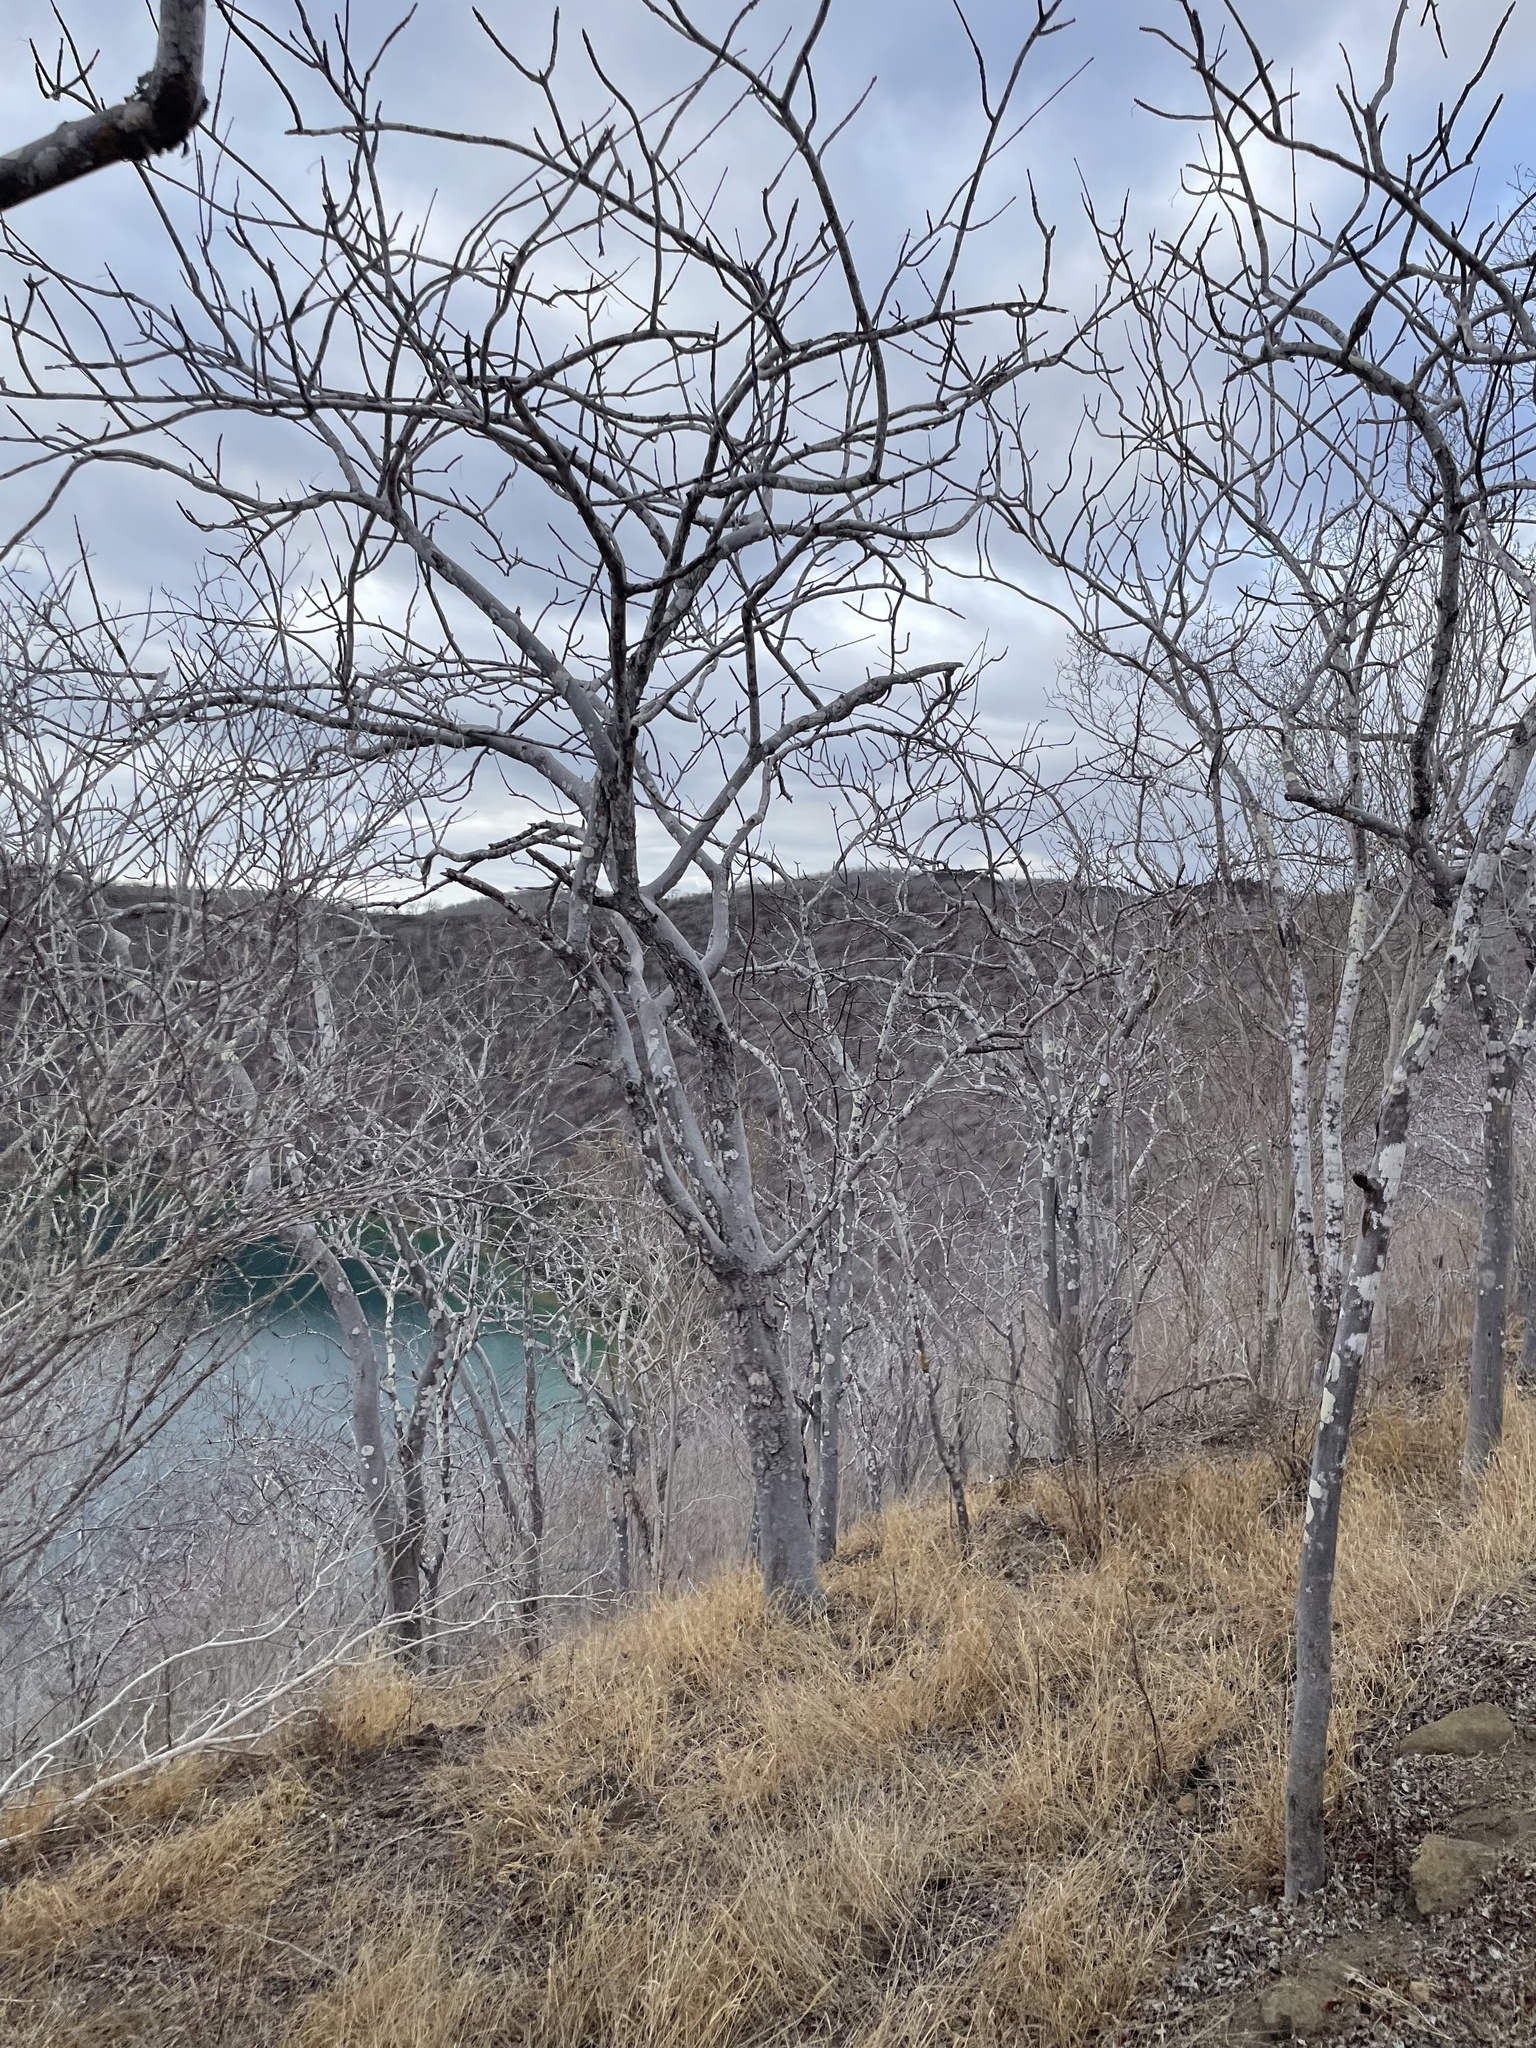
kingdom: Plantae
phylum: Tracheophyta
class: Magnoliopsida
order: Sapindales
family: Burseraceae
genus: Bursera
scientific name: Bursera graveolens
